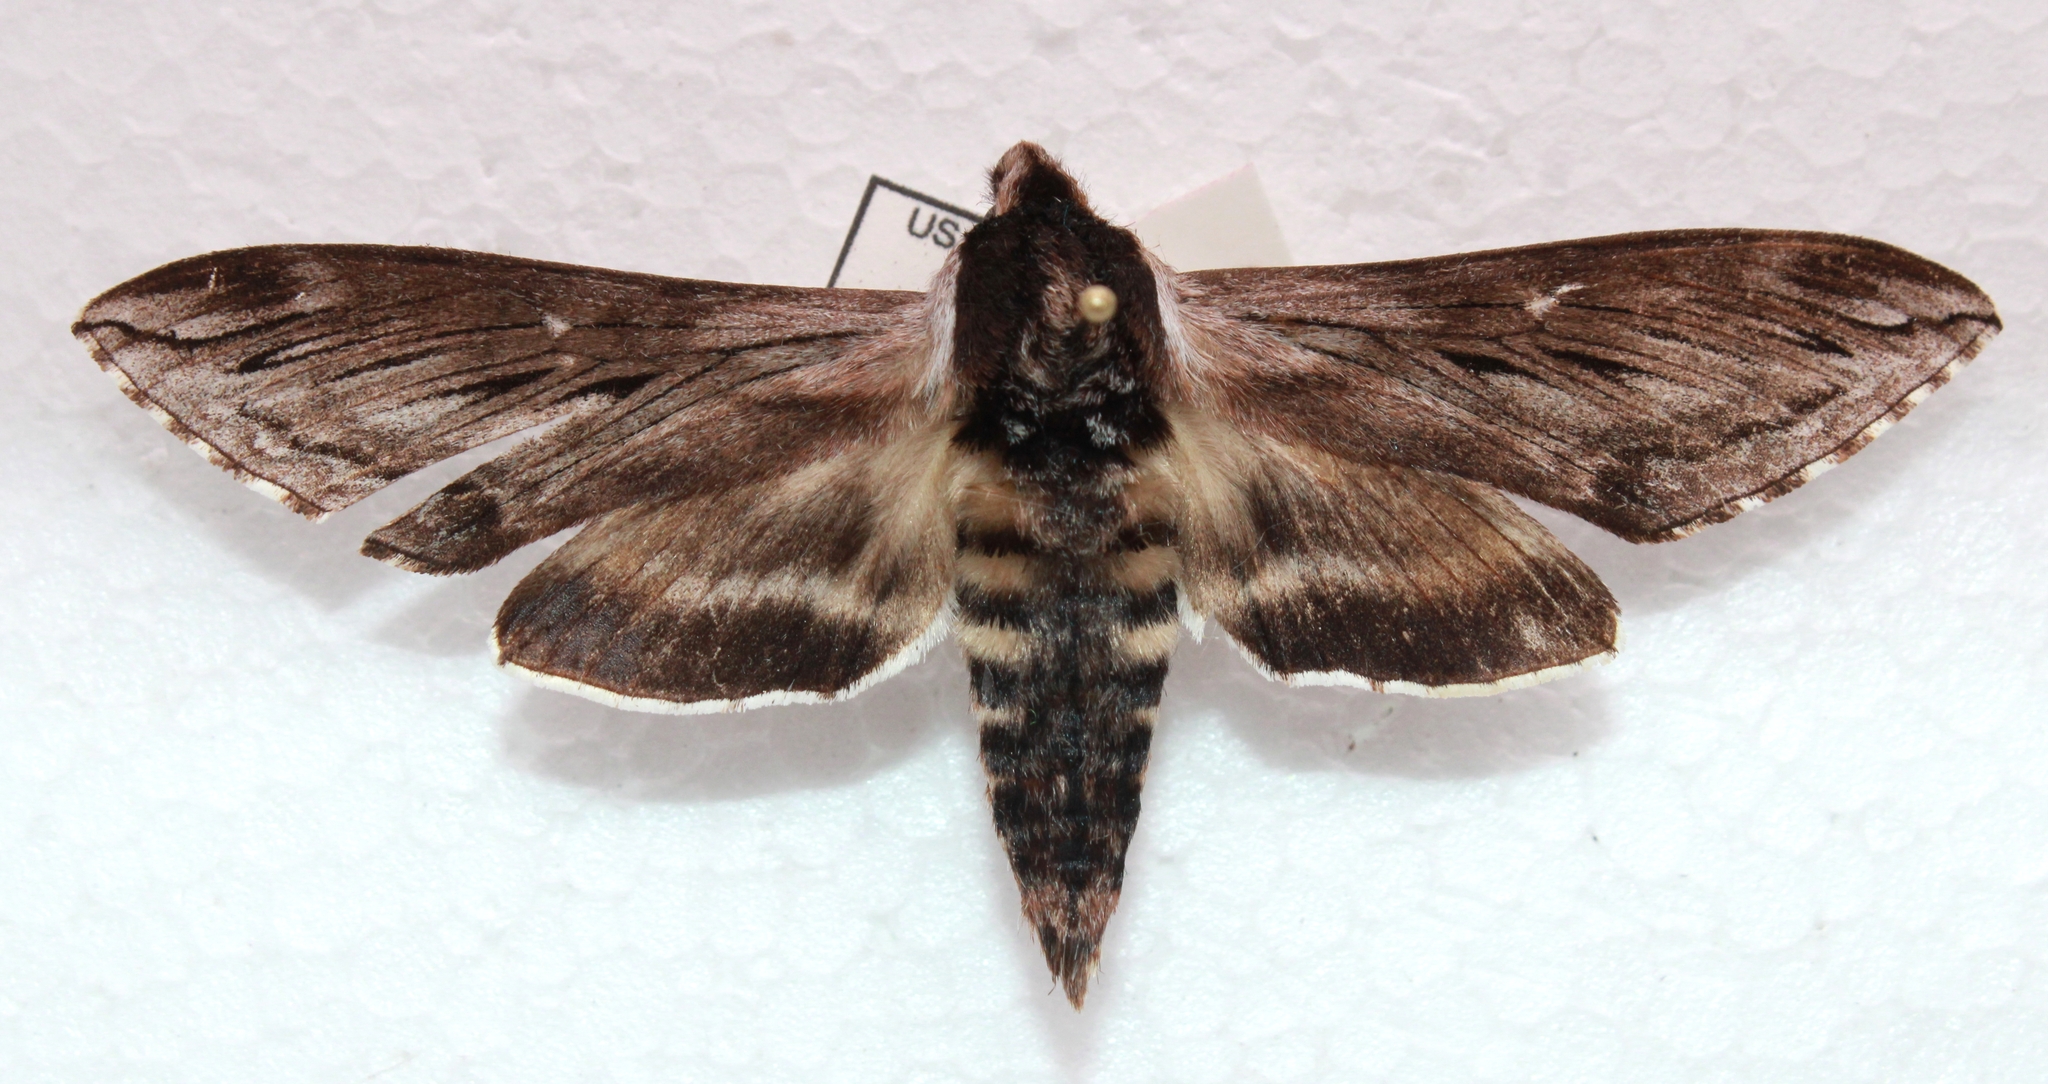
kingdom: Animalia
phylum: Arthropoda
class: Insecta
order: Lepidoptera
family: Sphingidae
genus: Sphinx
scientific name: Sphinx poecila
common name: Northern apple sphinx
